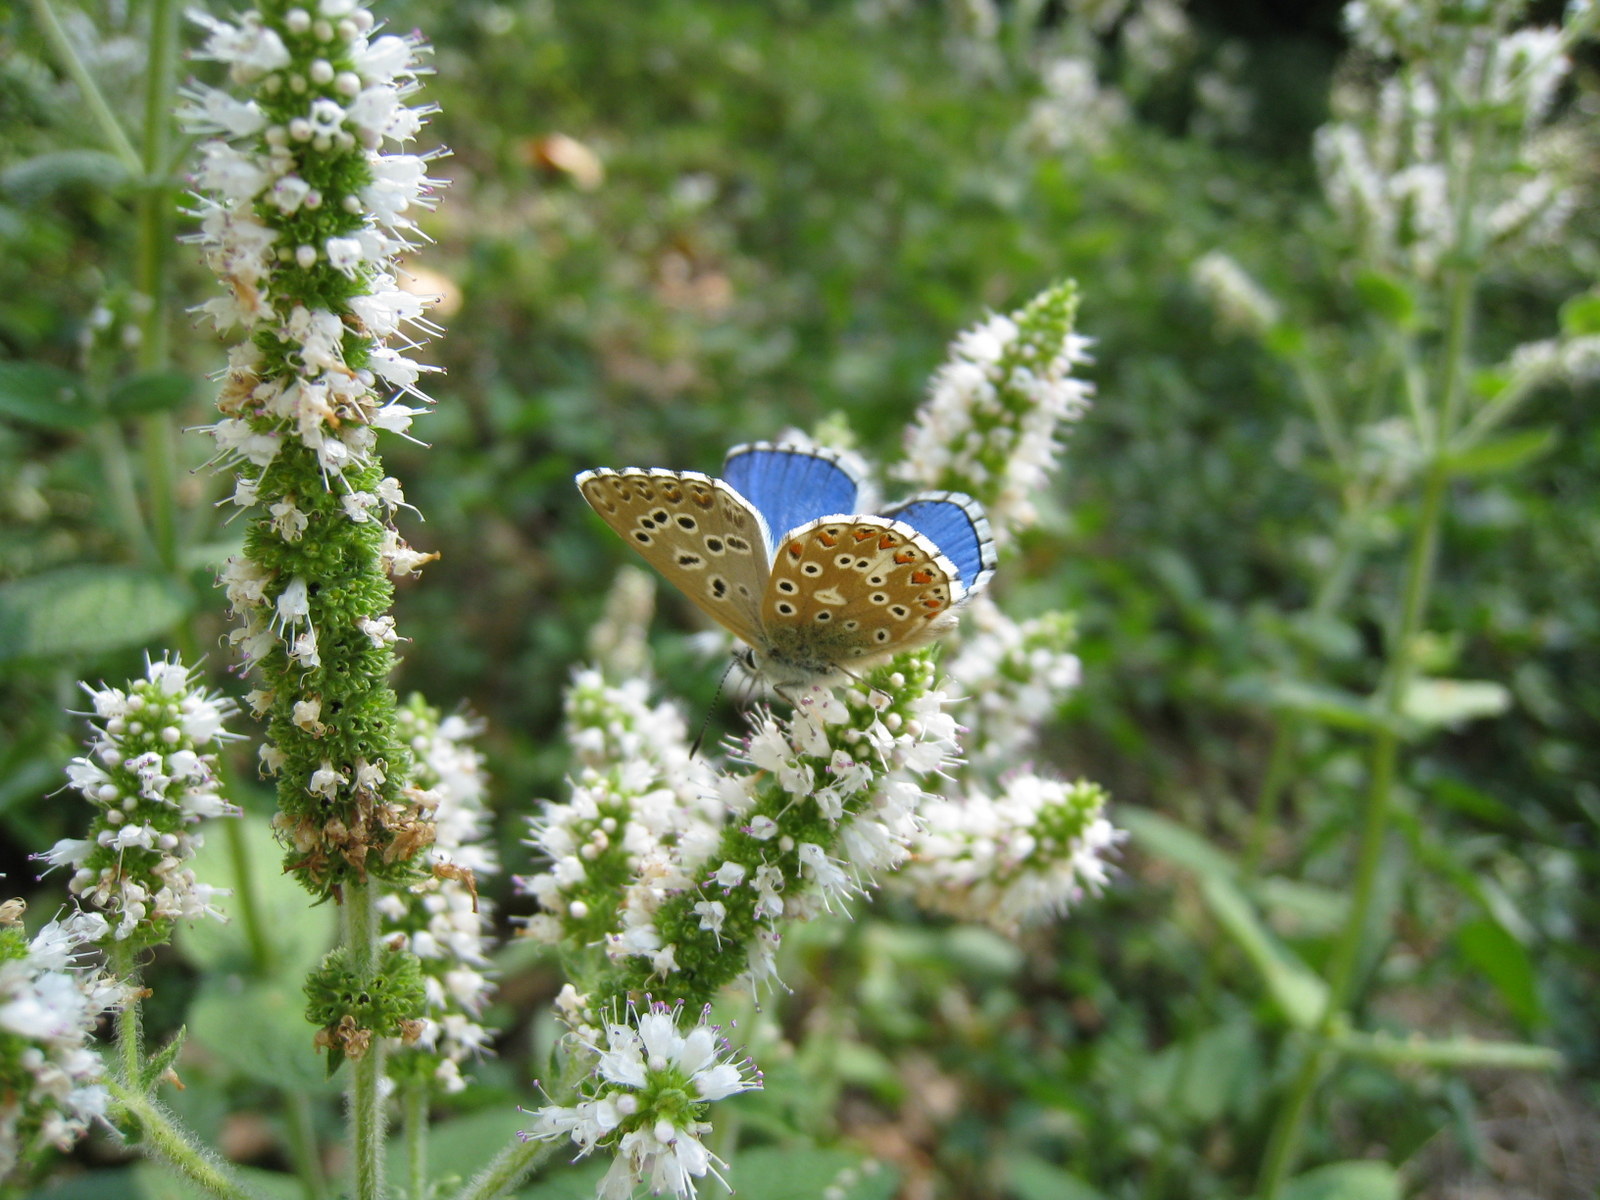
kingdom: Animalia
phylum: Arthropoda
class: Insecta
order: Lepidoptera
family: Lycaenidae
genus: Lysandra
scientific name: Lysandra bellargus
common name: Adonis blue
